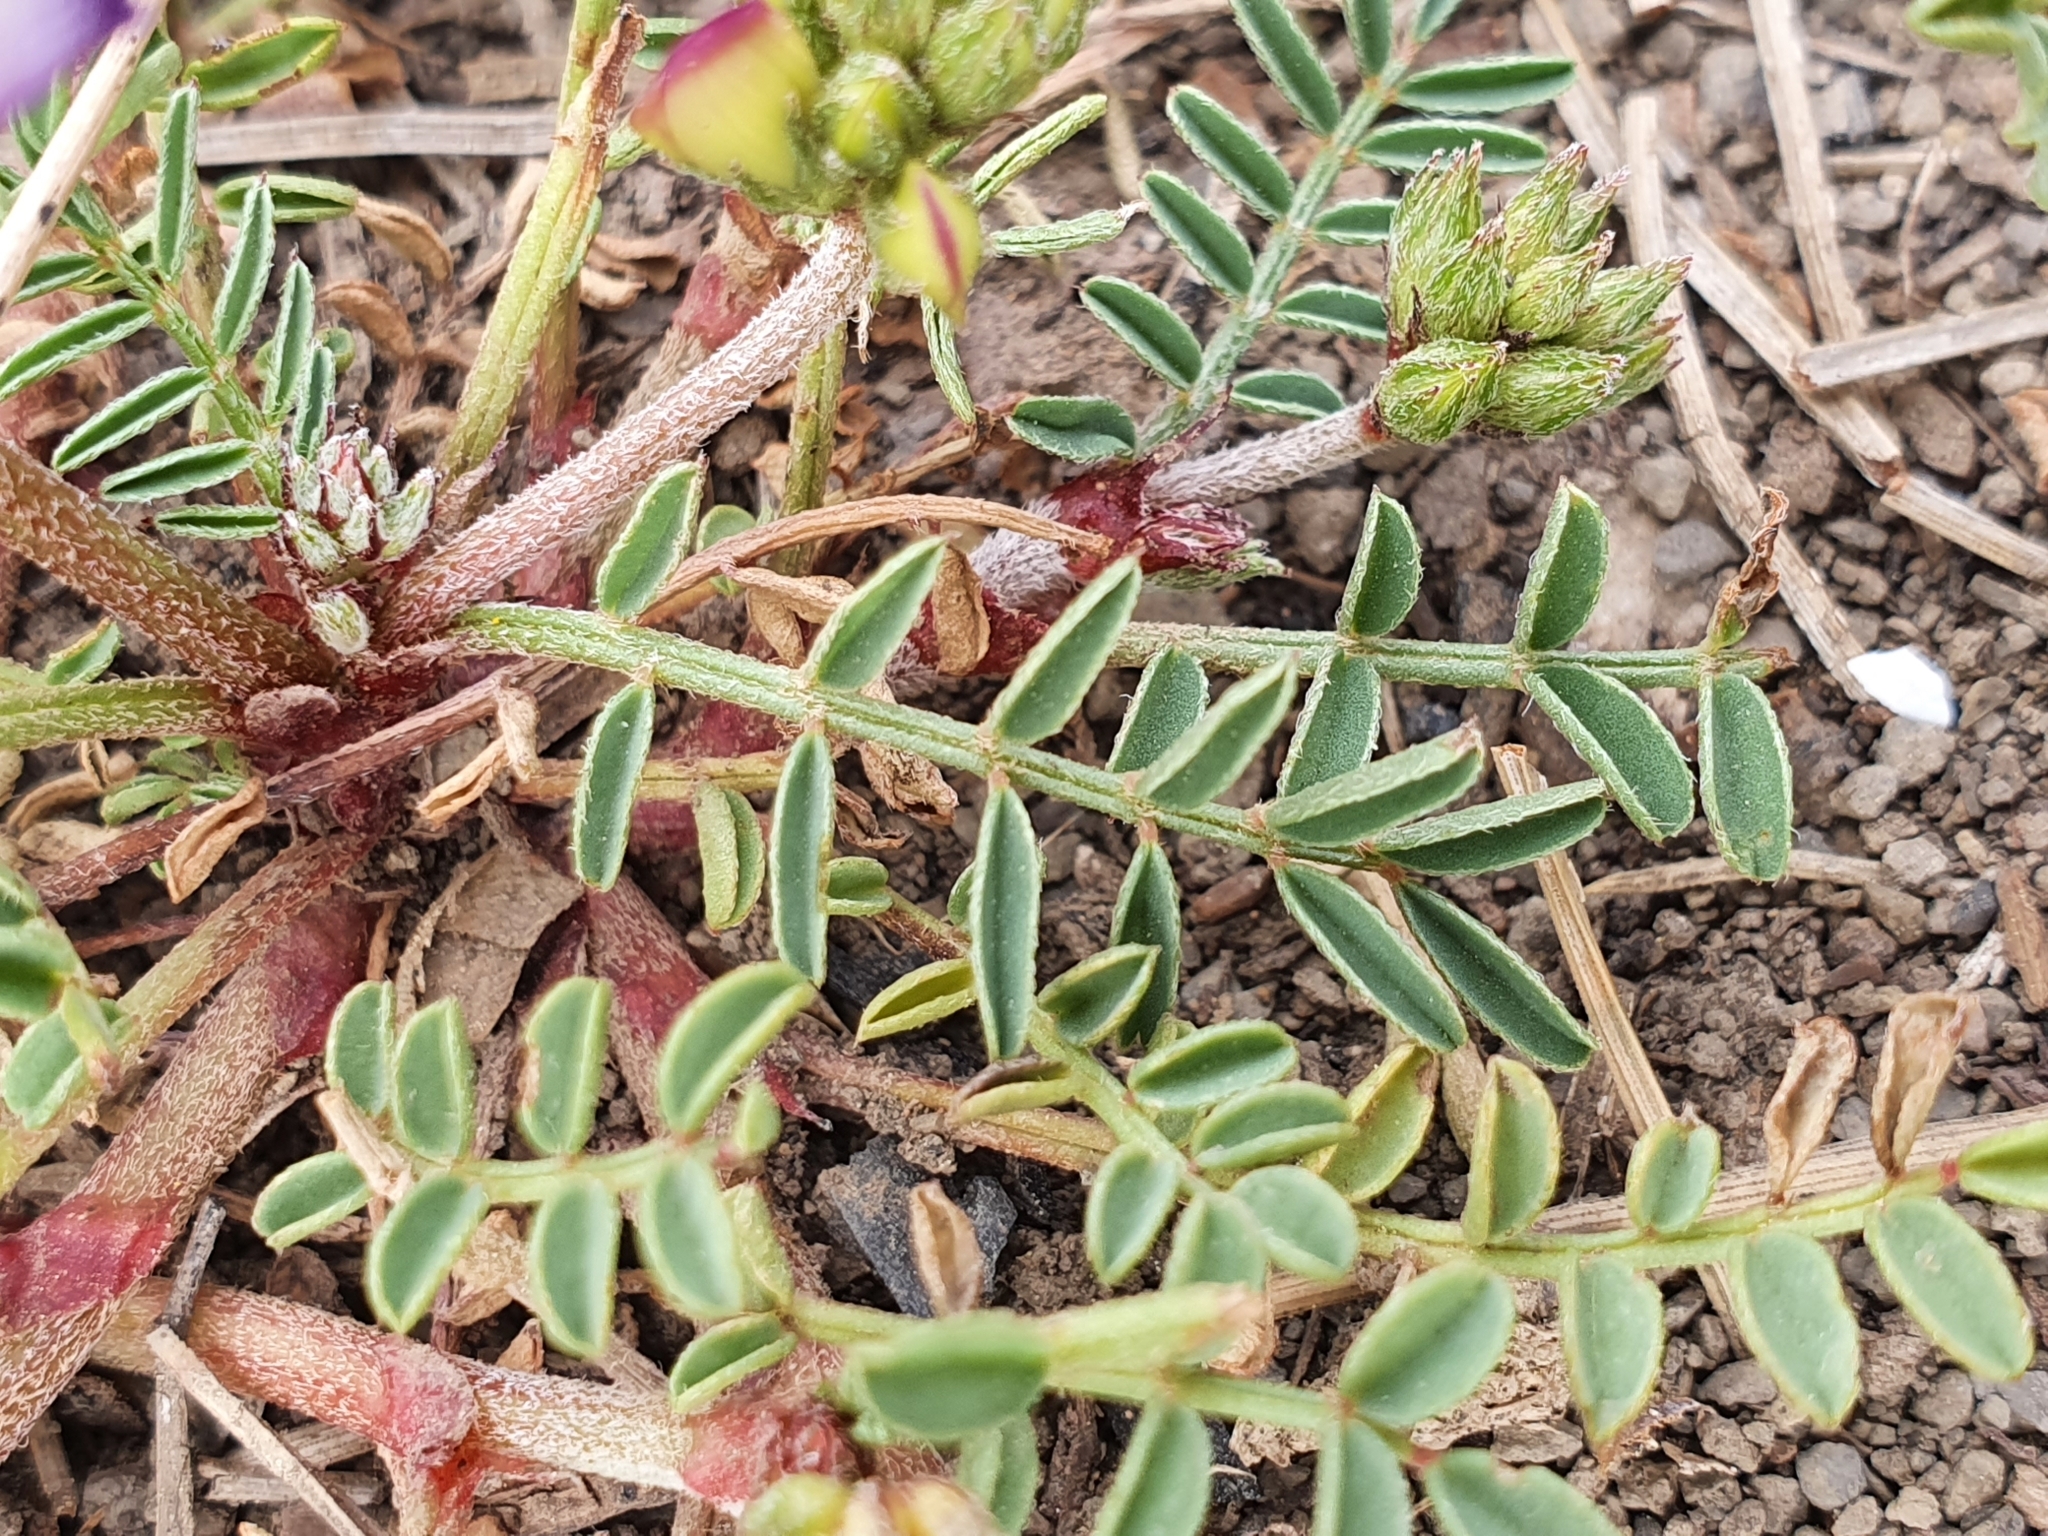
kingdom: Plantae
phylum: Tracheophyta
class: Magnoliopsida
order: Fabales
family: Fabaceae
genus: Sulla
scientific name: Sulla glomerata
